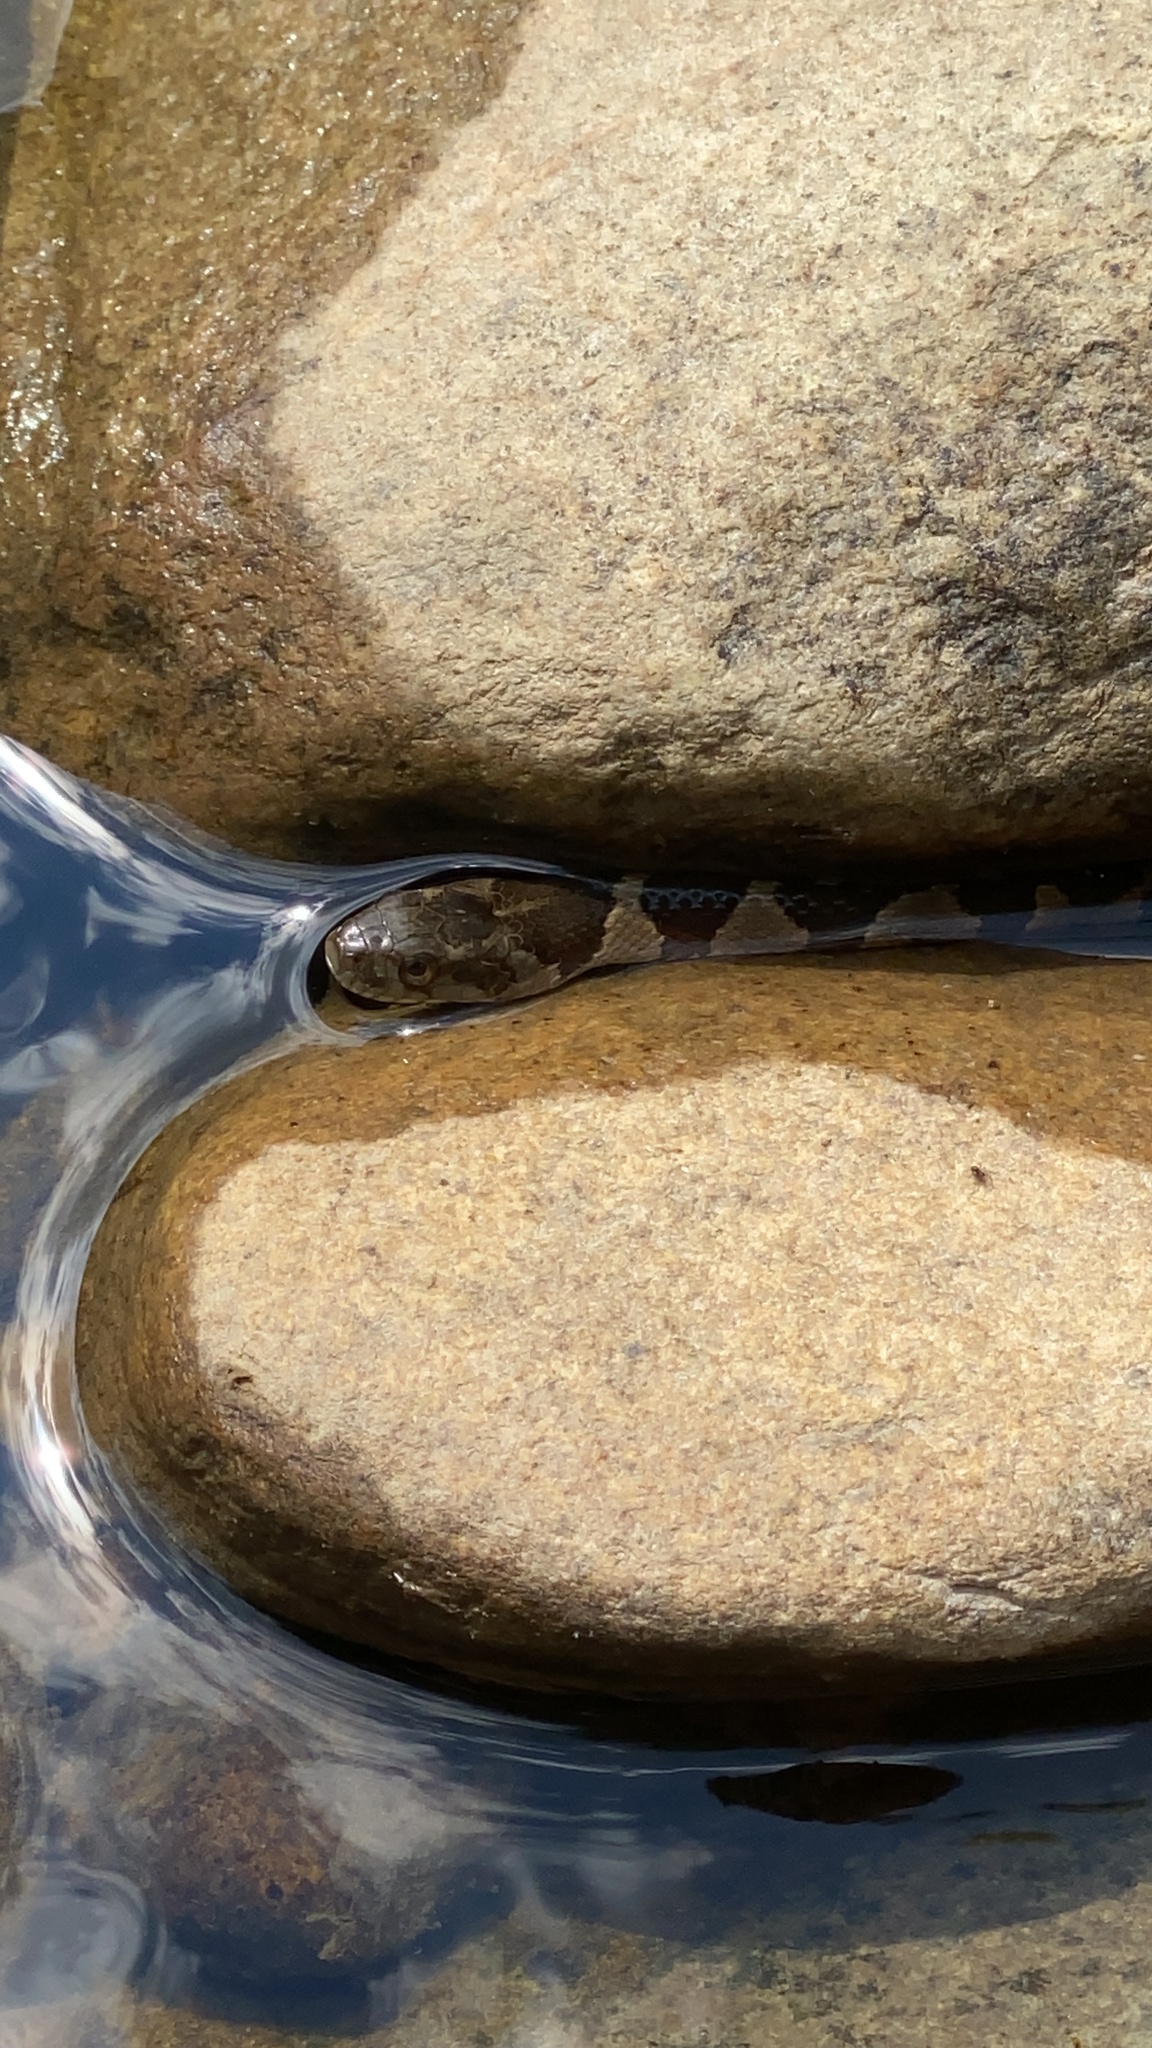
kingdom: Animalia
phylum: Chordata
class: Squamata
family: Colubridae
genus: Nerodia
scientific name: Nerodia sipedon
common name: Northern water snake
